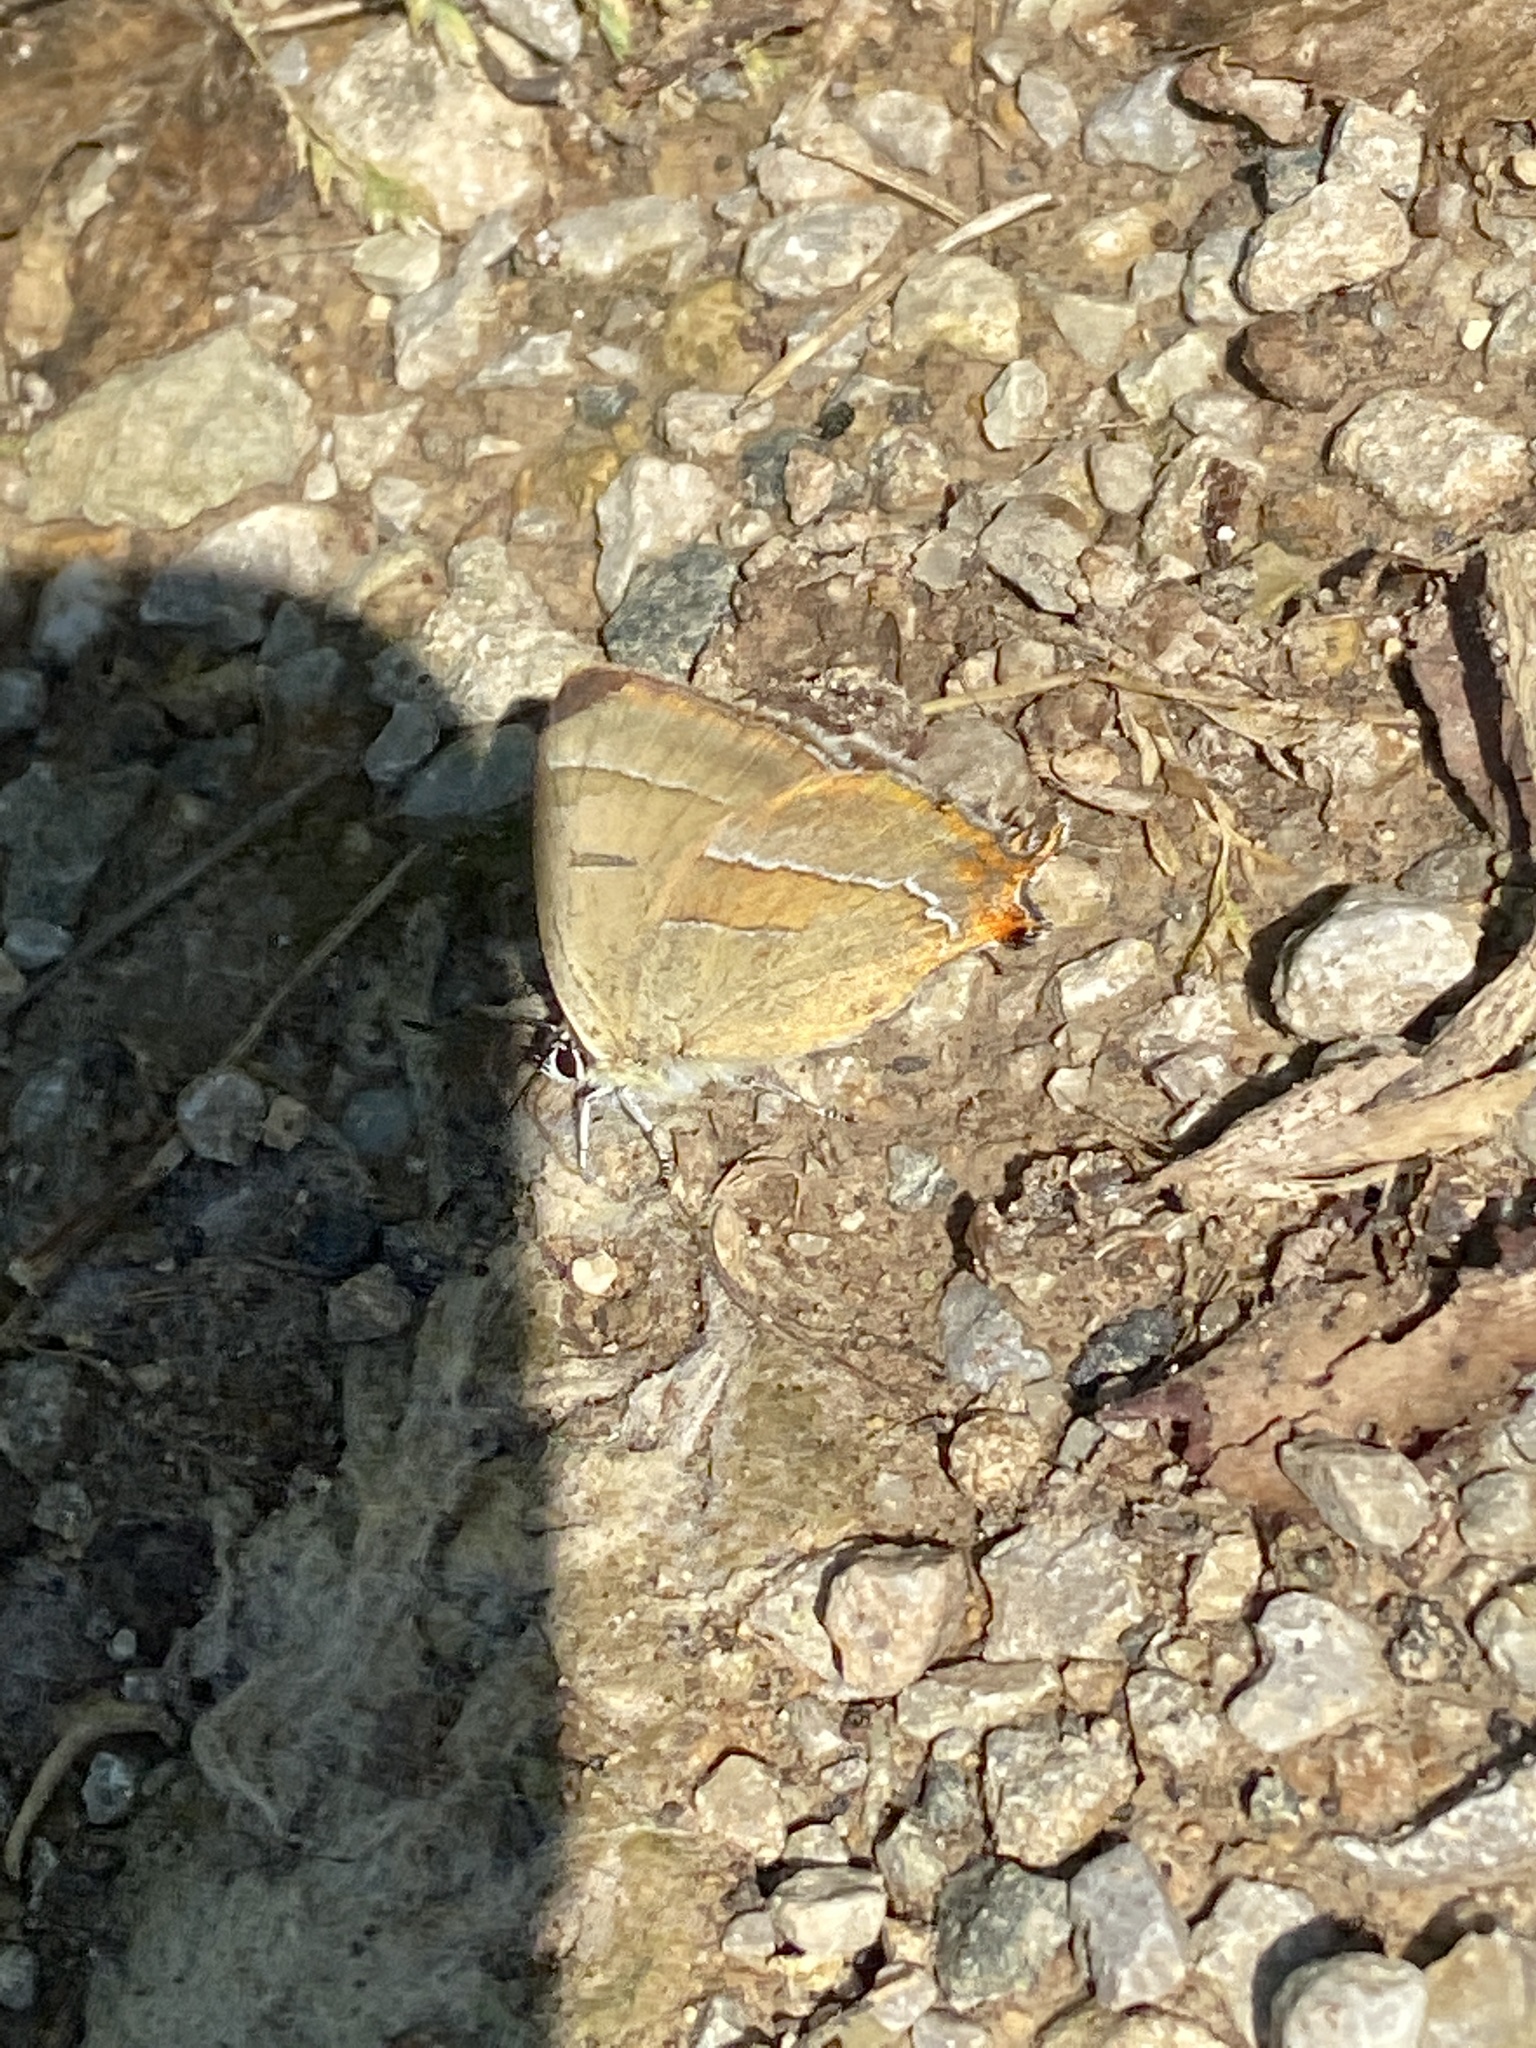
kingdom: Animalia
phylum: Arthropoda
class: Insecta
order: Lepidoptera
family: Lycaenidae
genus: Thecla
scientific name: Thecla betulae
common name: Brown hairstreak
